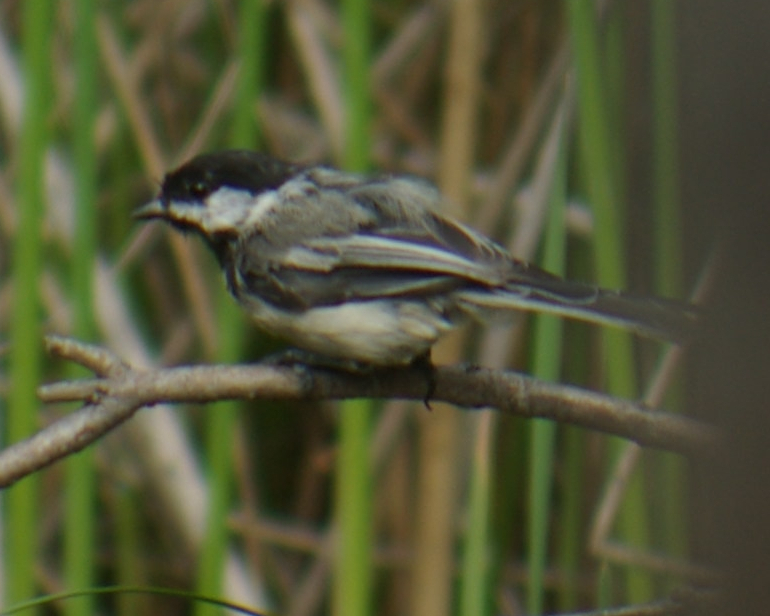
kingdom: Animalia
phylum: Chordata
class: Aves
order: Passeriformes
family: Paridae
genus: Poecile
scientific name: Poecile atricapillus
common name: Black-capped chickadee
